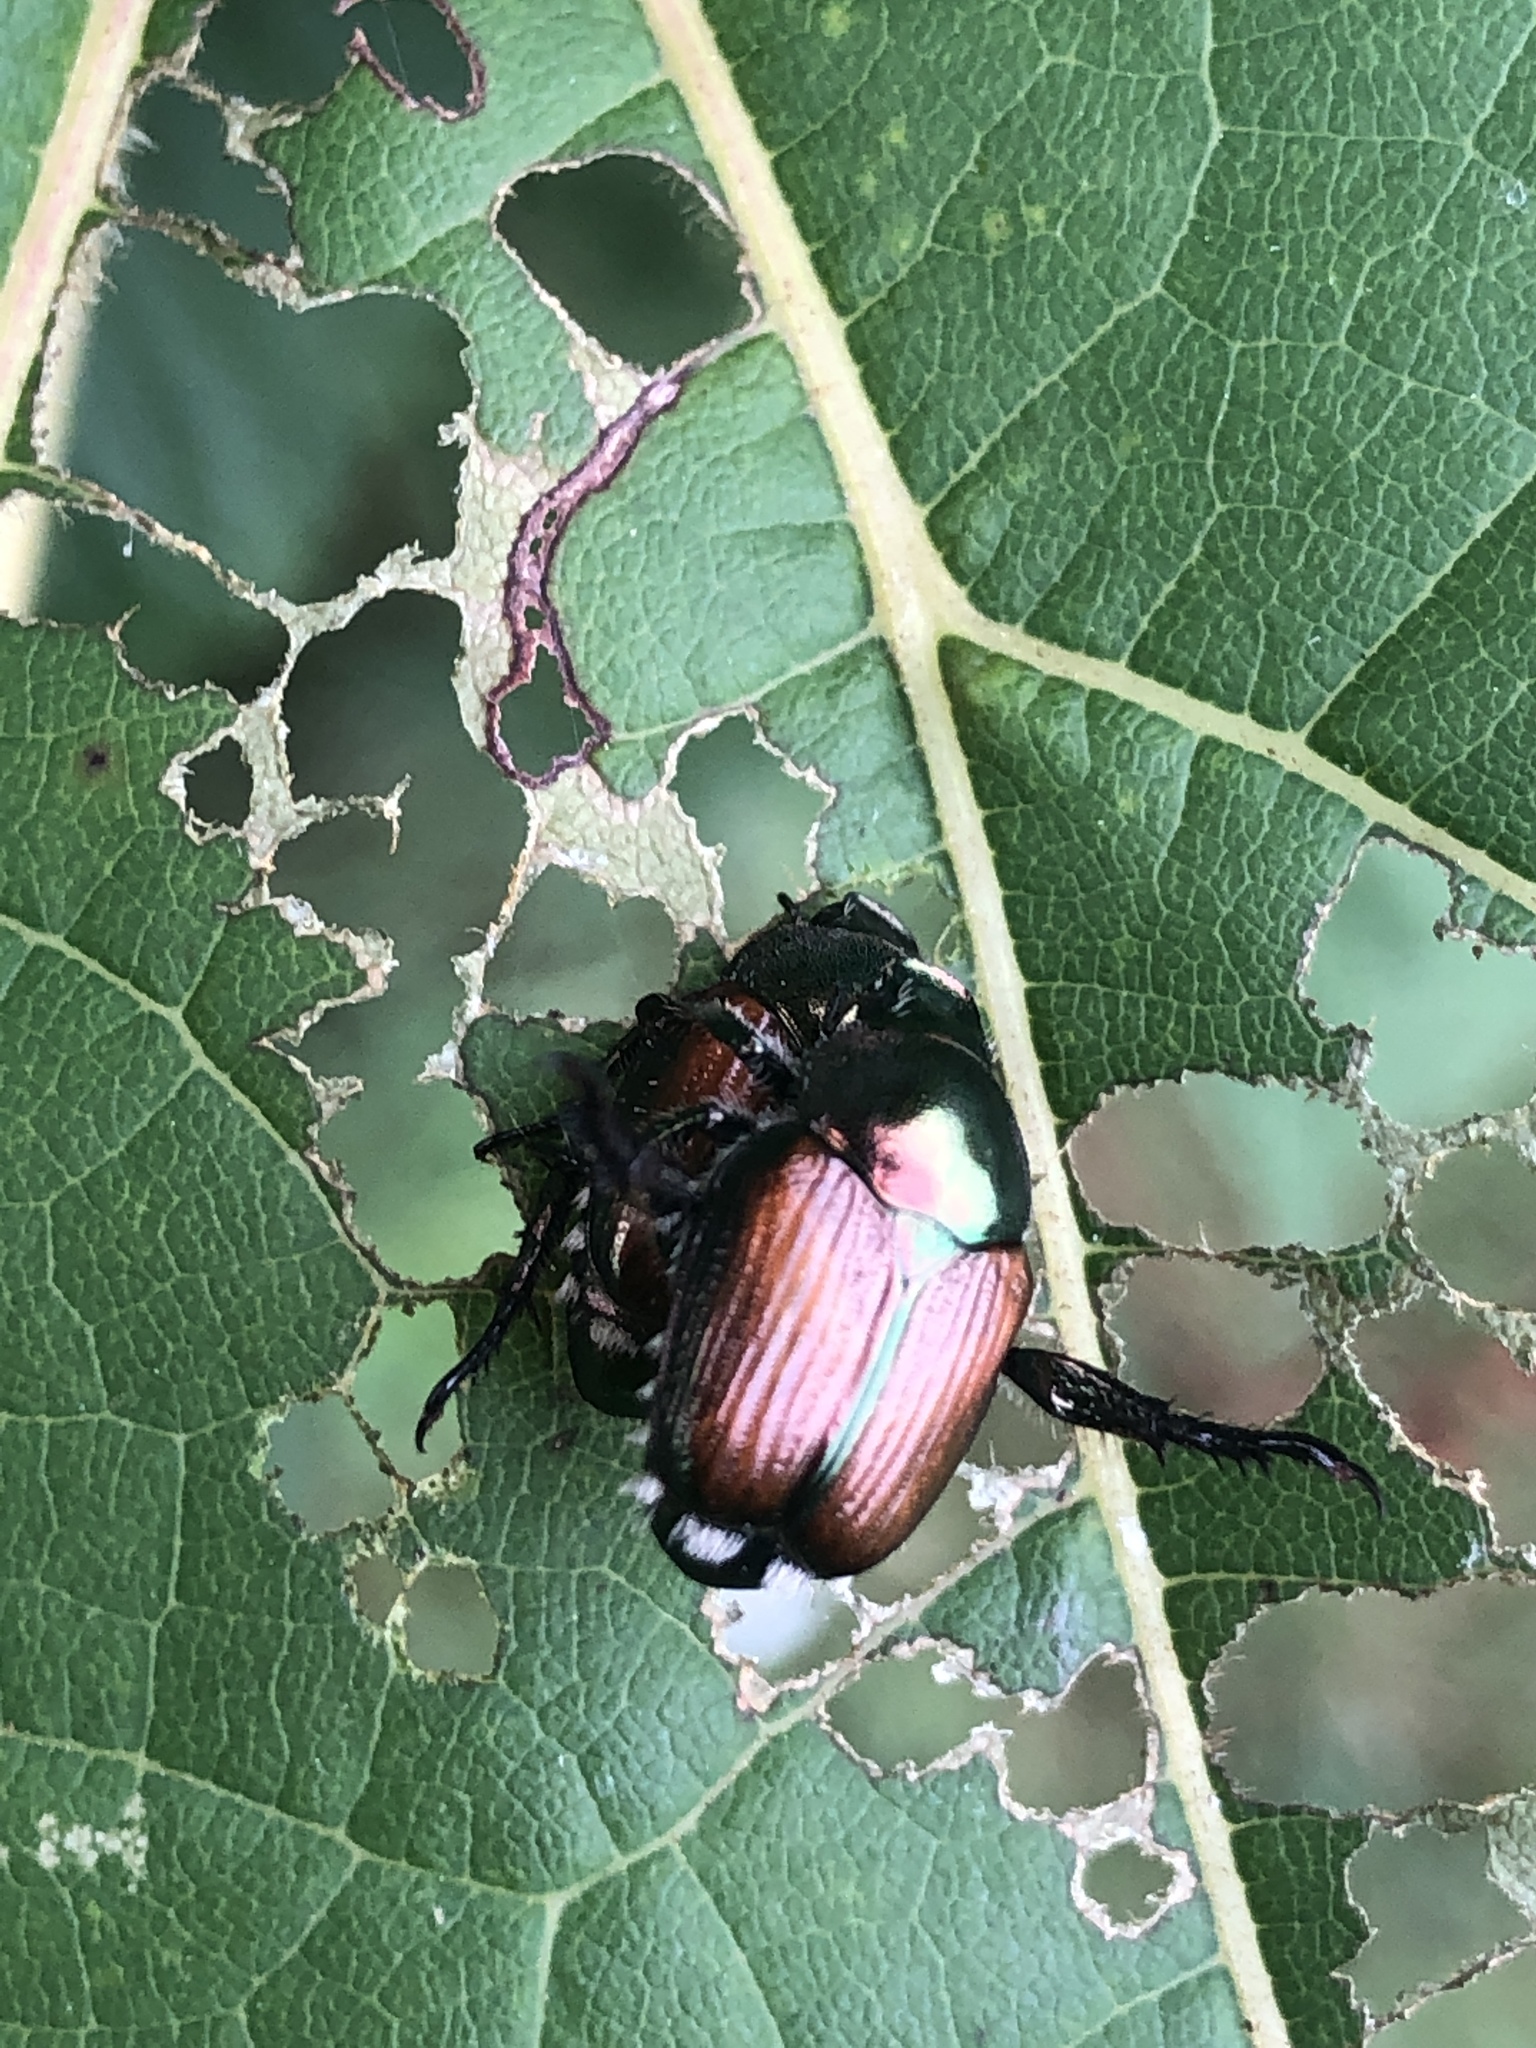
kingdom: Animalia
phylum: Arthropoda
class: Insecta
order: Coleoptera
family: Scarabaeidae
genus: Popillia
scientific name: Popillia japonica
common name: Japanese beetle
